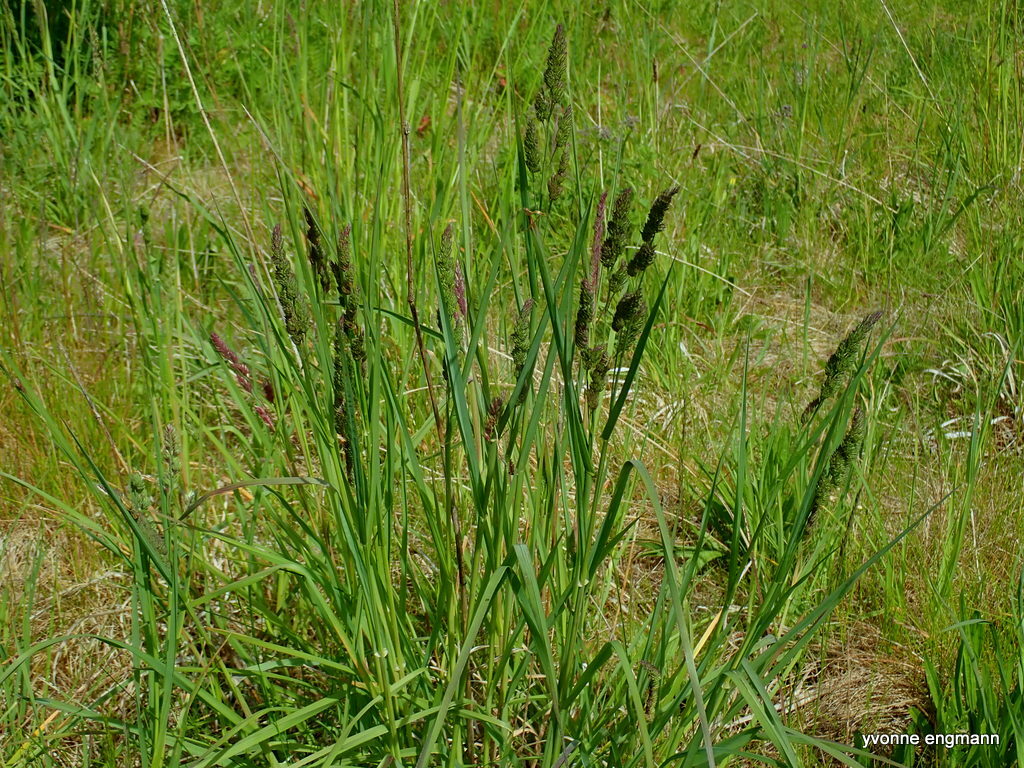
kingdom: Plantae
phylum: Tracheophyta
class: Liliopsida
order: Poales
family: Poaceae
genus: Dactylis
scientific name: Dactylis glomerata
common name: Orchardgrass
